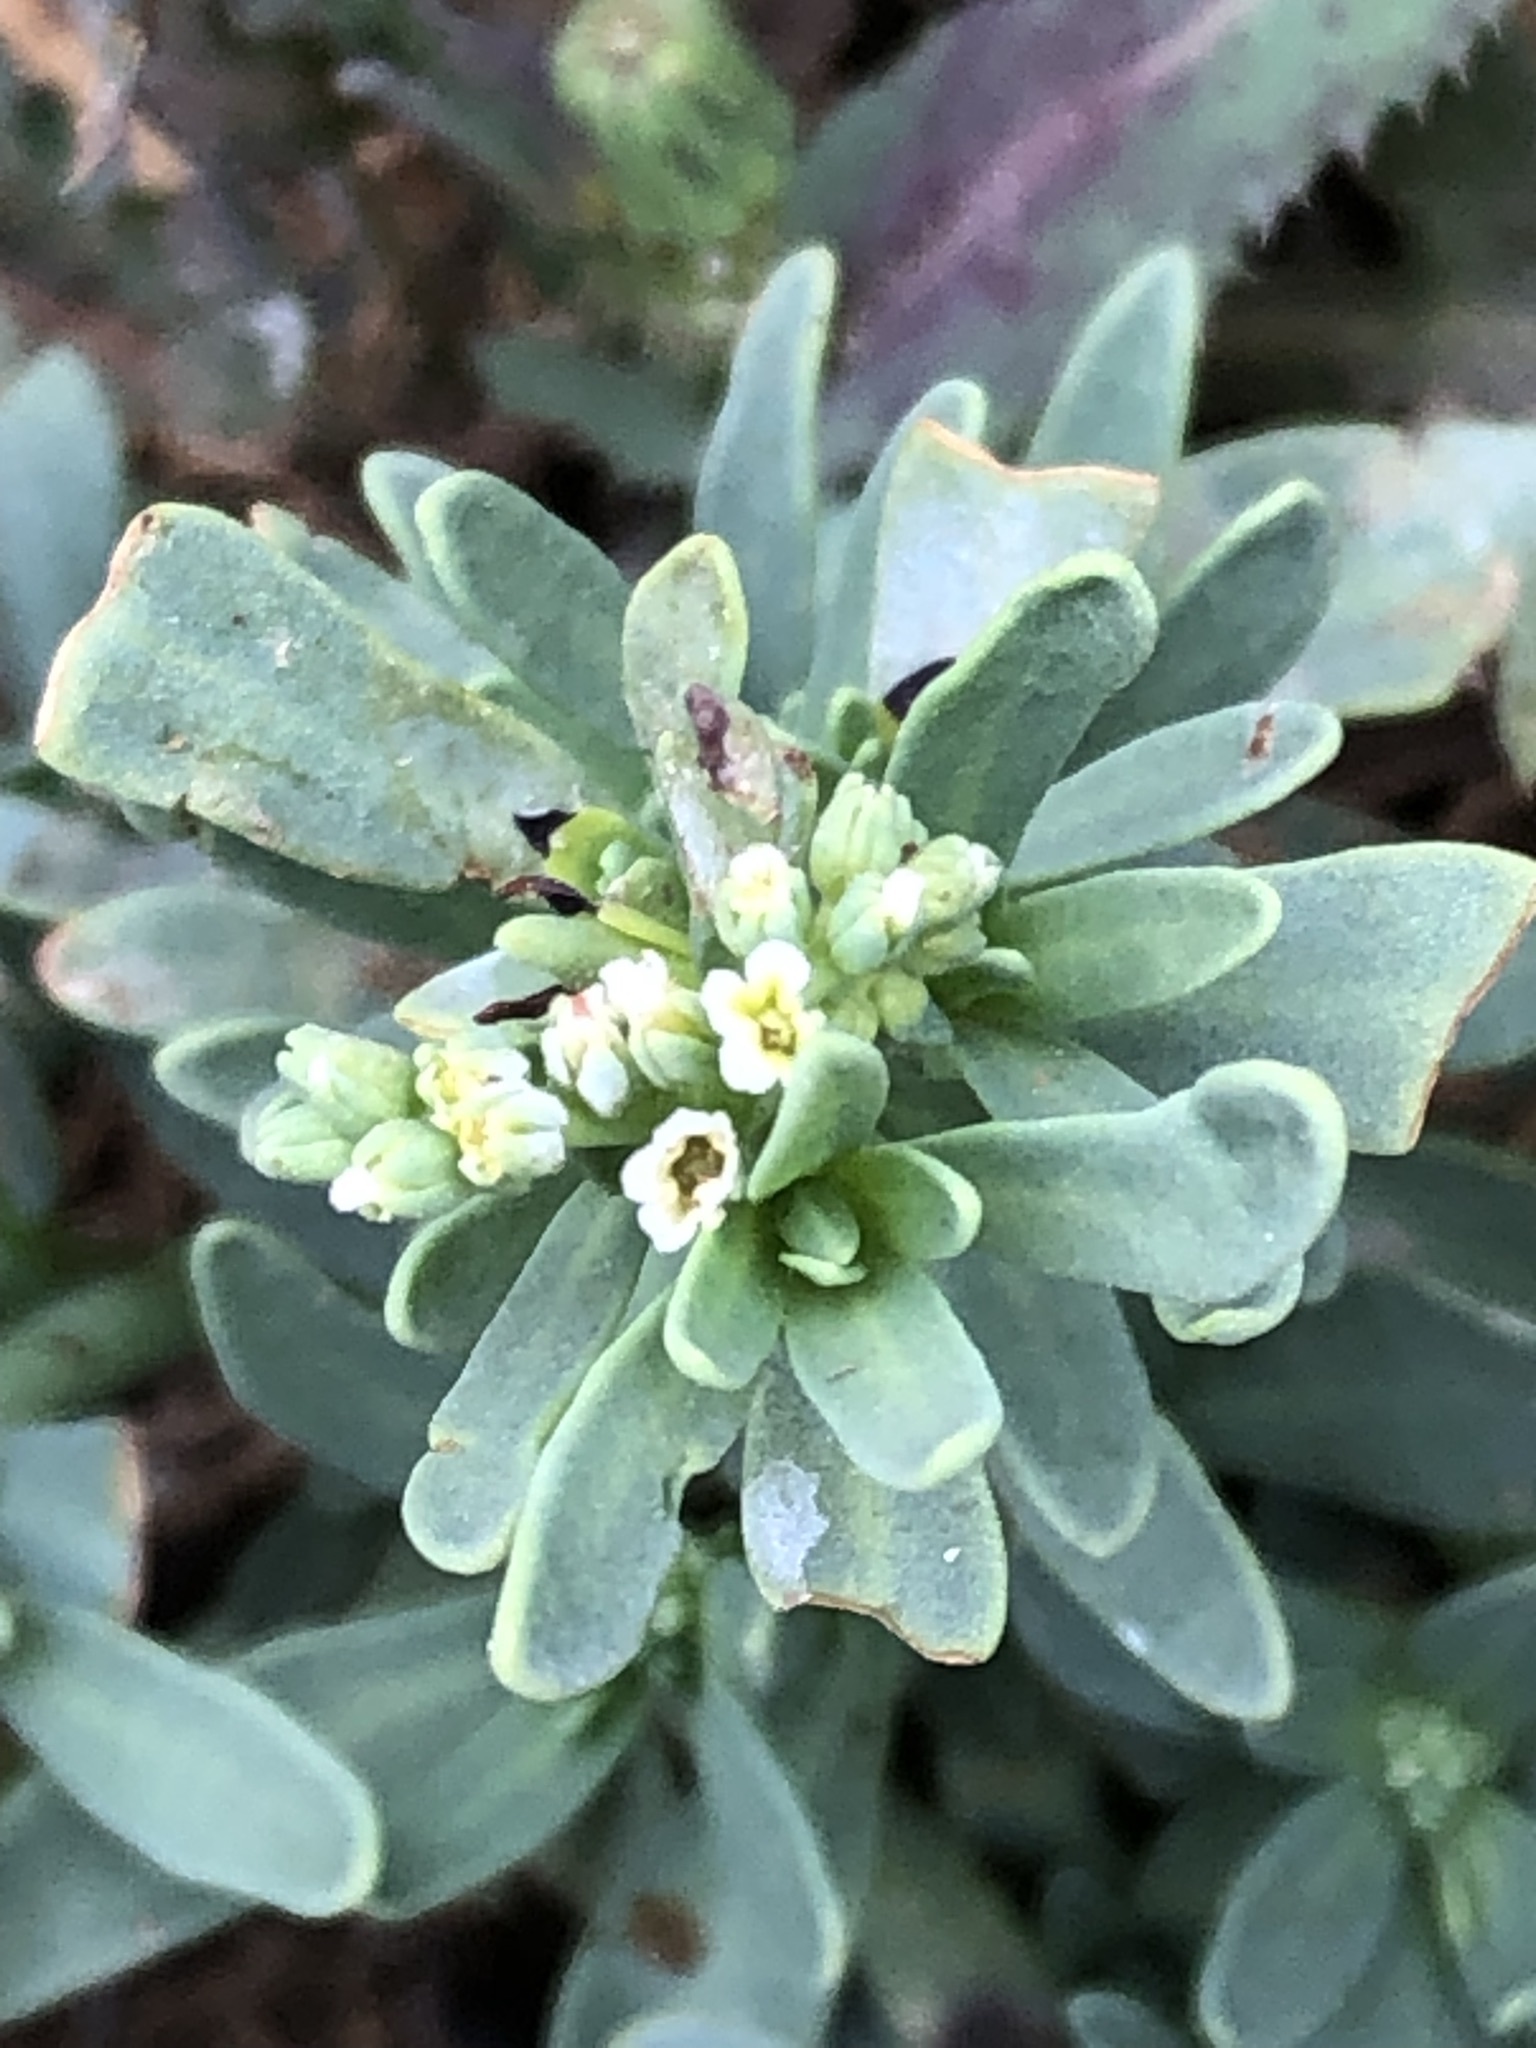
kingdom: Plantae
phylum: Tracheophyta
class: Magnoliopsida
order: Boraginales
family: Heliotropiaceae
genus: Heliotropium
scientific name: Heliotropium curassavicum
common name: Seaside heliotrope
